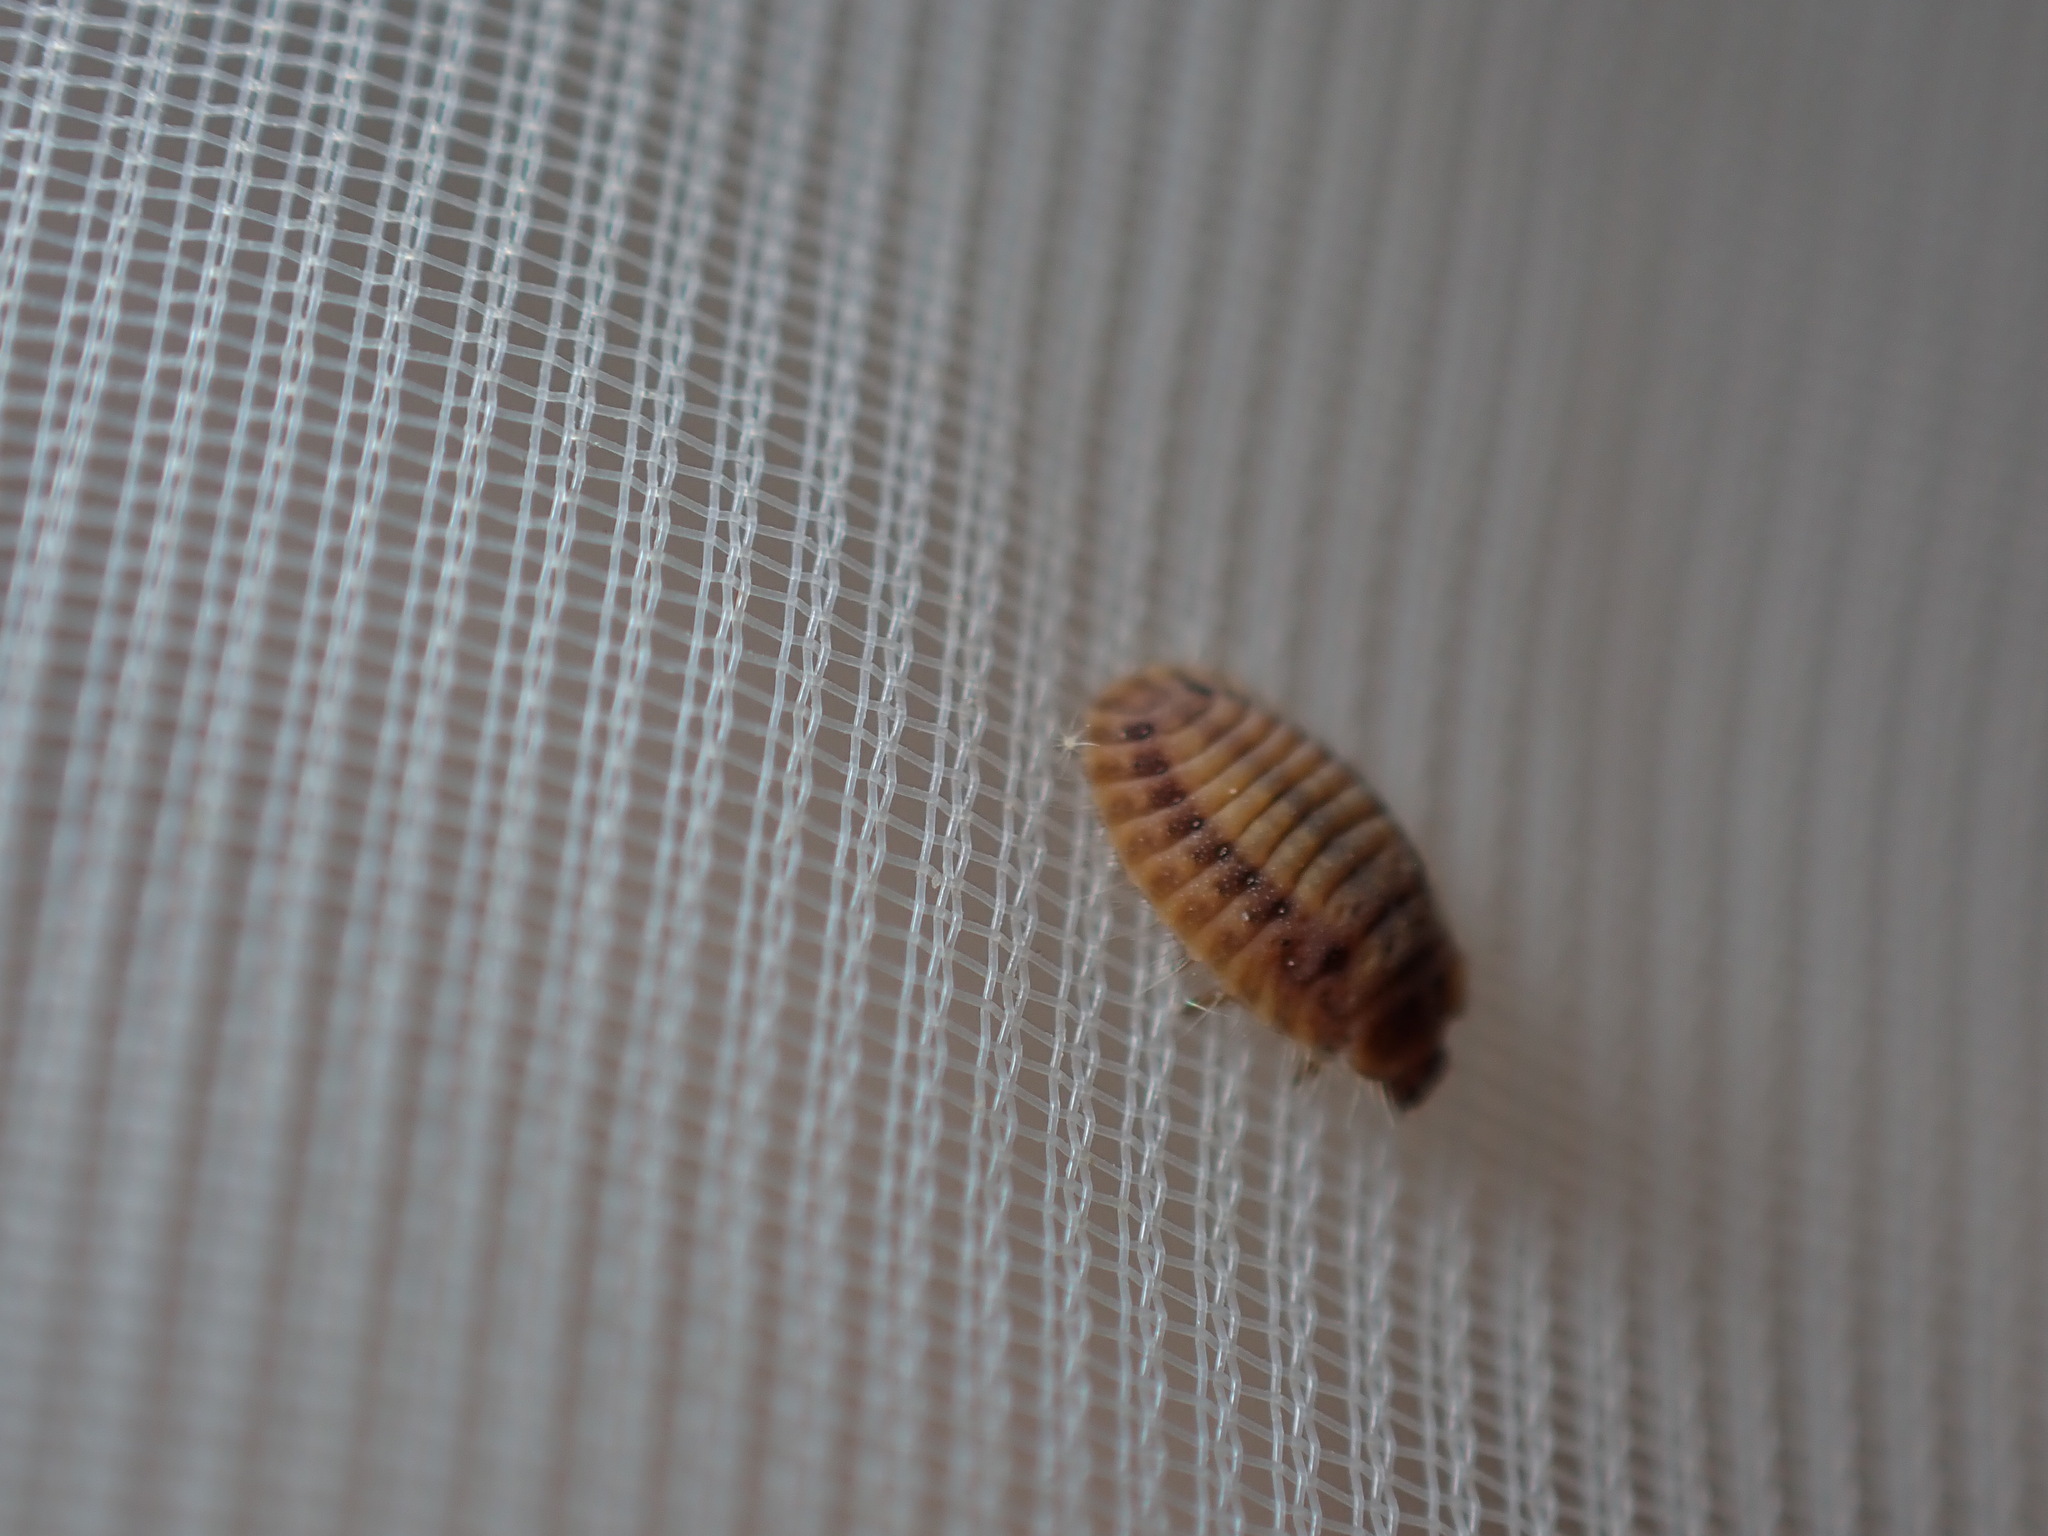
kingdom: Animalia
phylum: Arthropoda
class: Insecta
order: Coleoptera
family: Coccinellidae
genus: Platynaspis
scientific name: Platynaspis luteorubra
